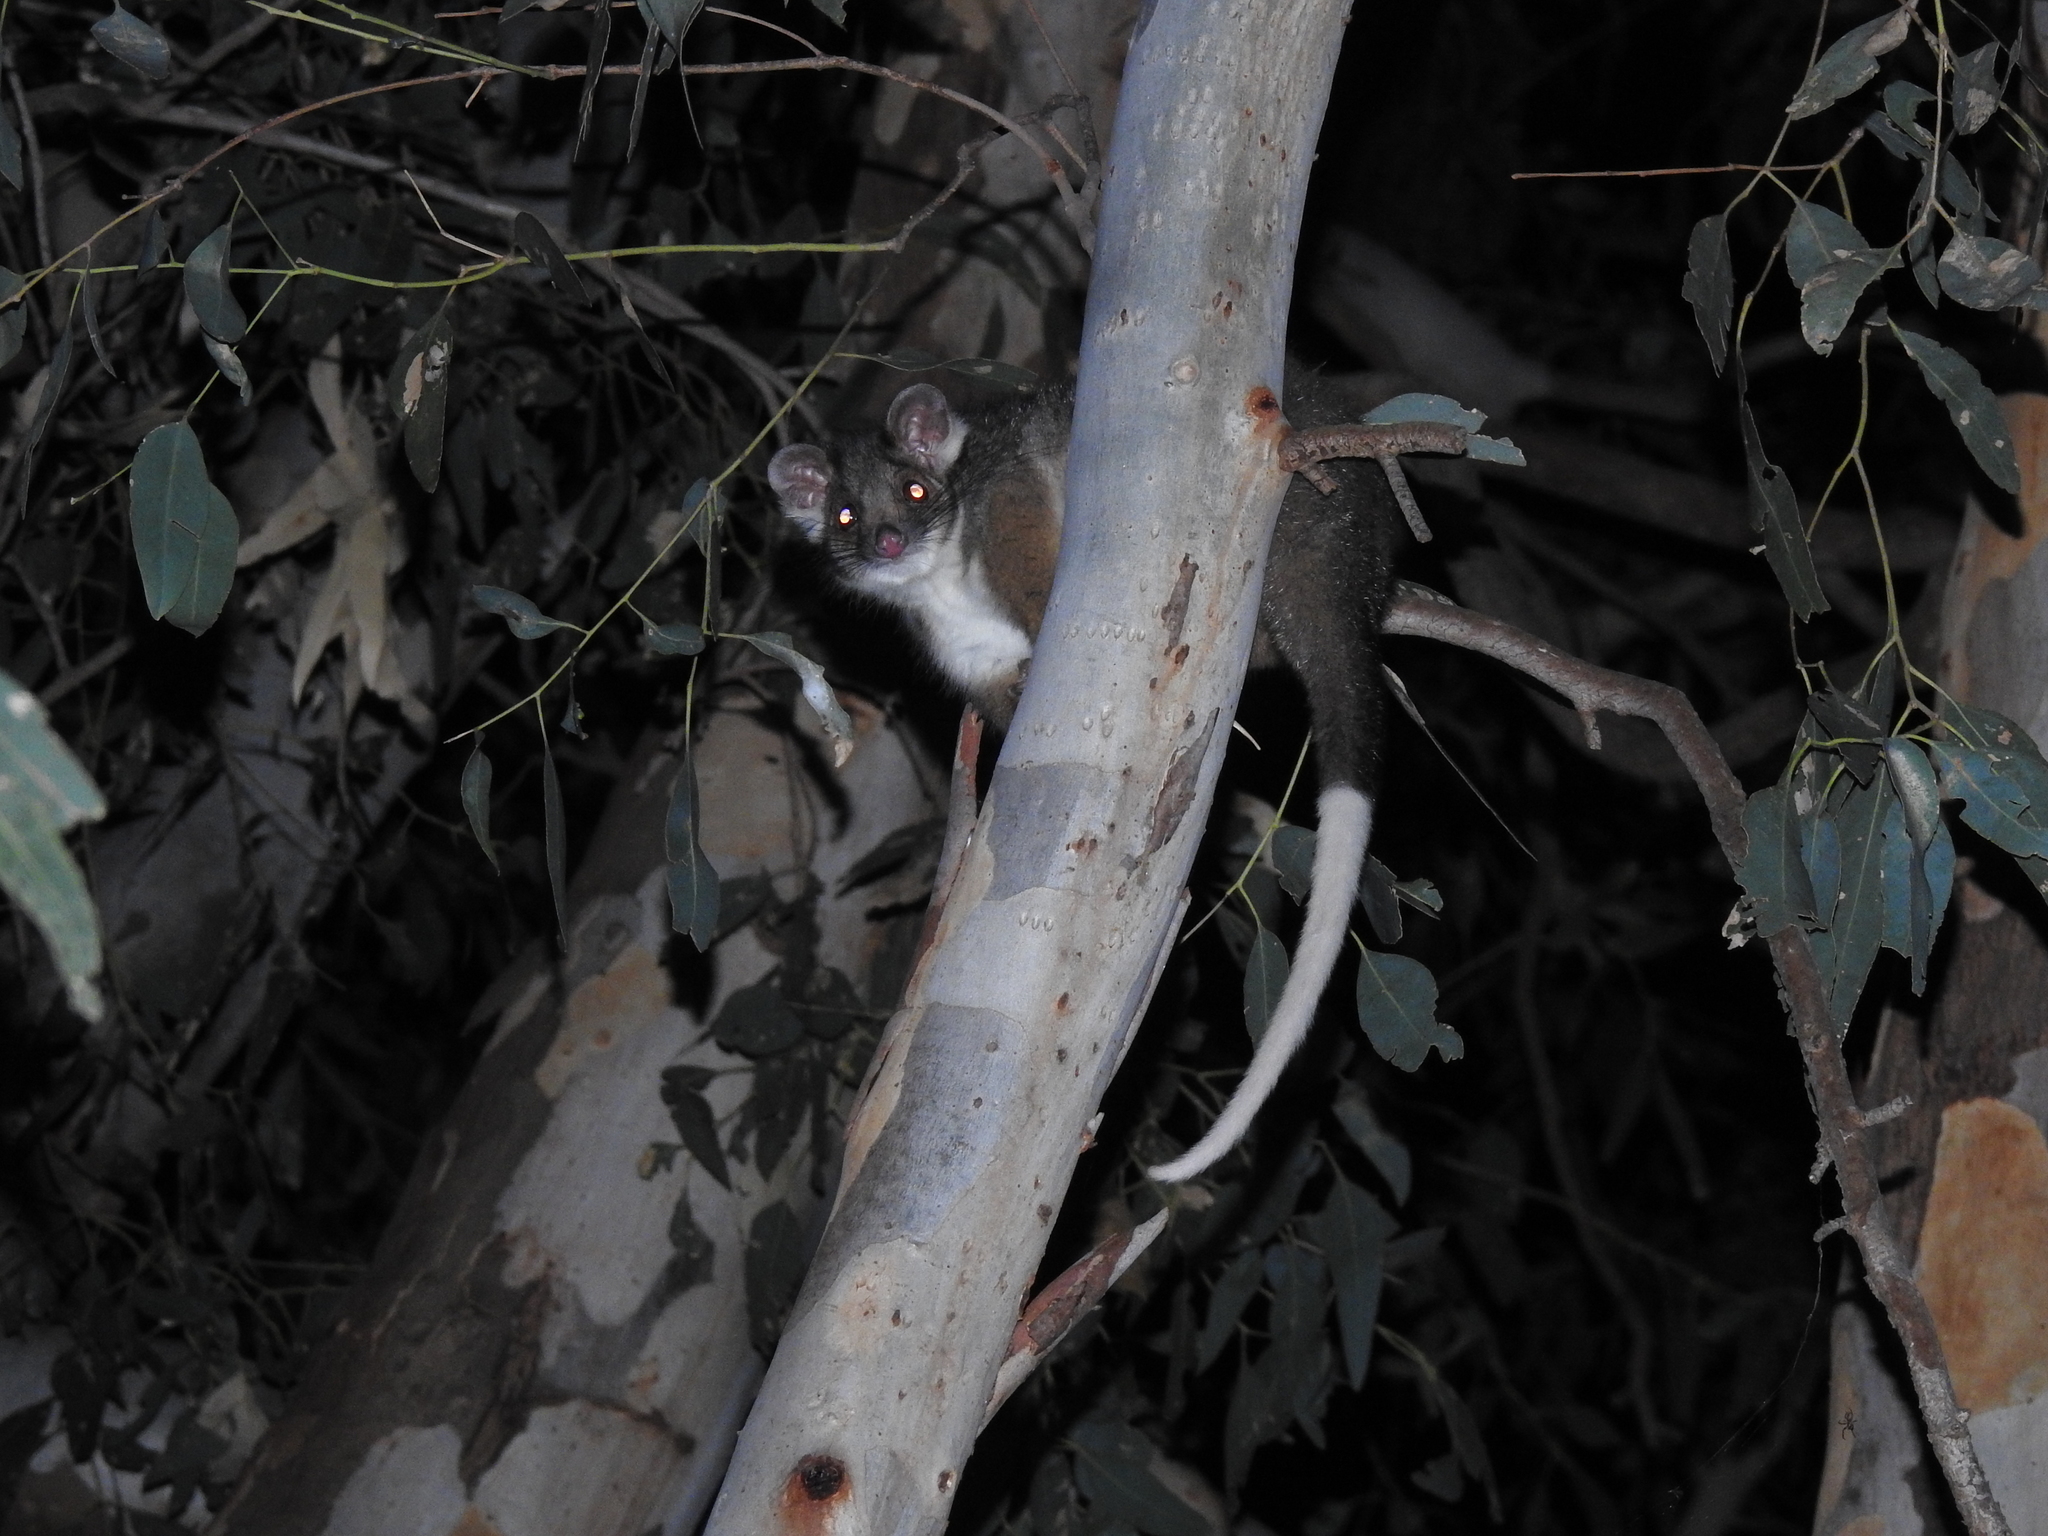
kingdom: Animalia
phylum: Chordata
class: Mammalia
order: Diprotodontia
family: Pseudocheiridae
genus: Pseudocheirus
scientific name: Pseudocheirus peregrinus
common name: Common ringtail possum
